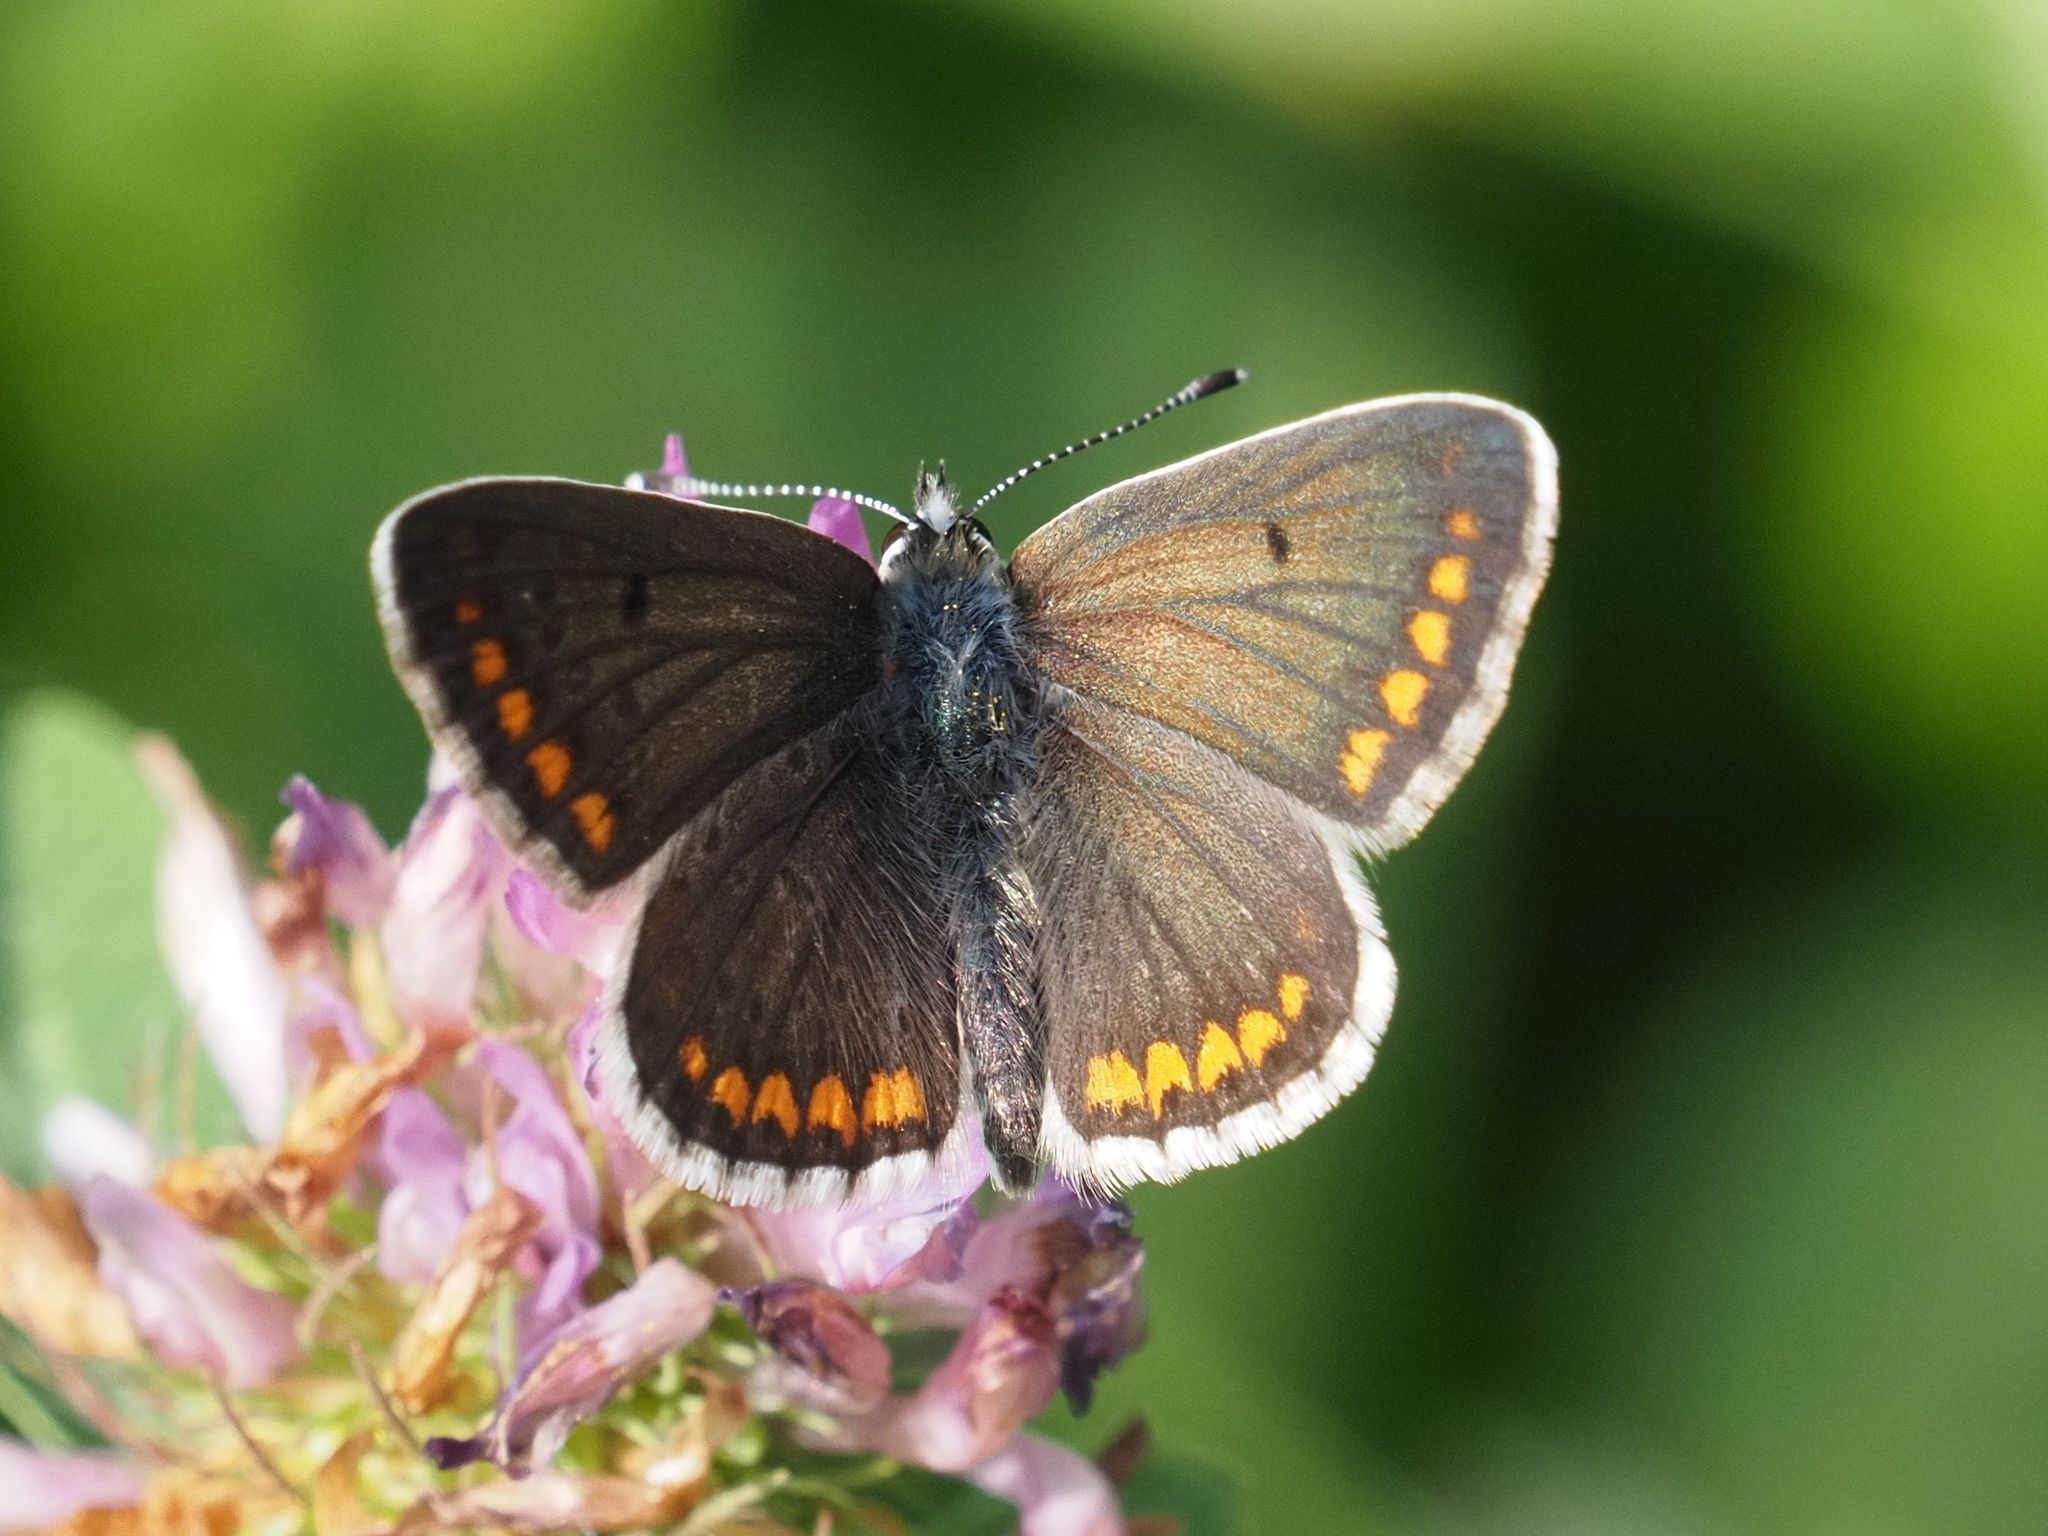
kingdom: Animalia
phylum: Arthropoda
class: Insecta
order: Lepidoptera
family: Lycaenidae
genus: Aricia
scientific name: Aricia agestis
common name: Brown argus
